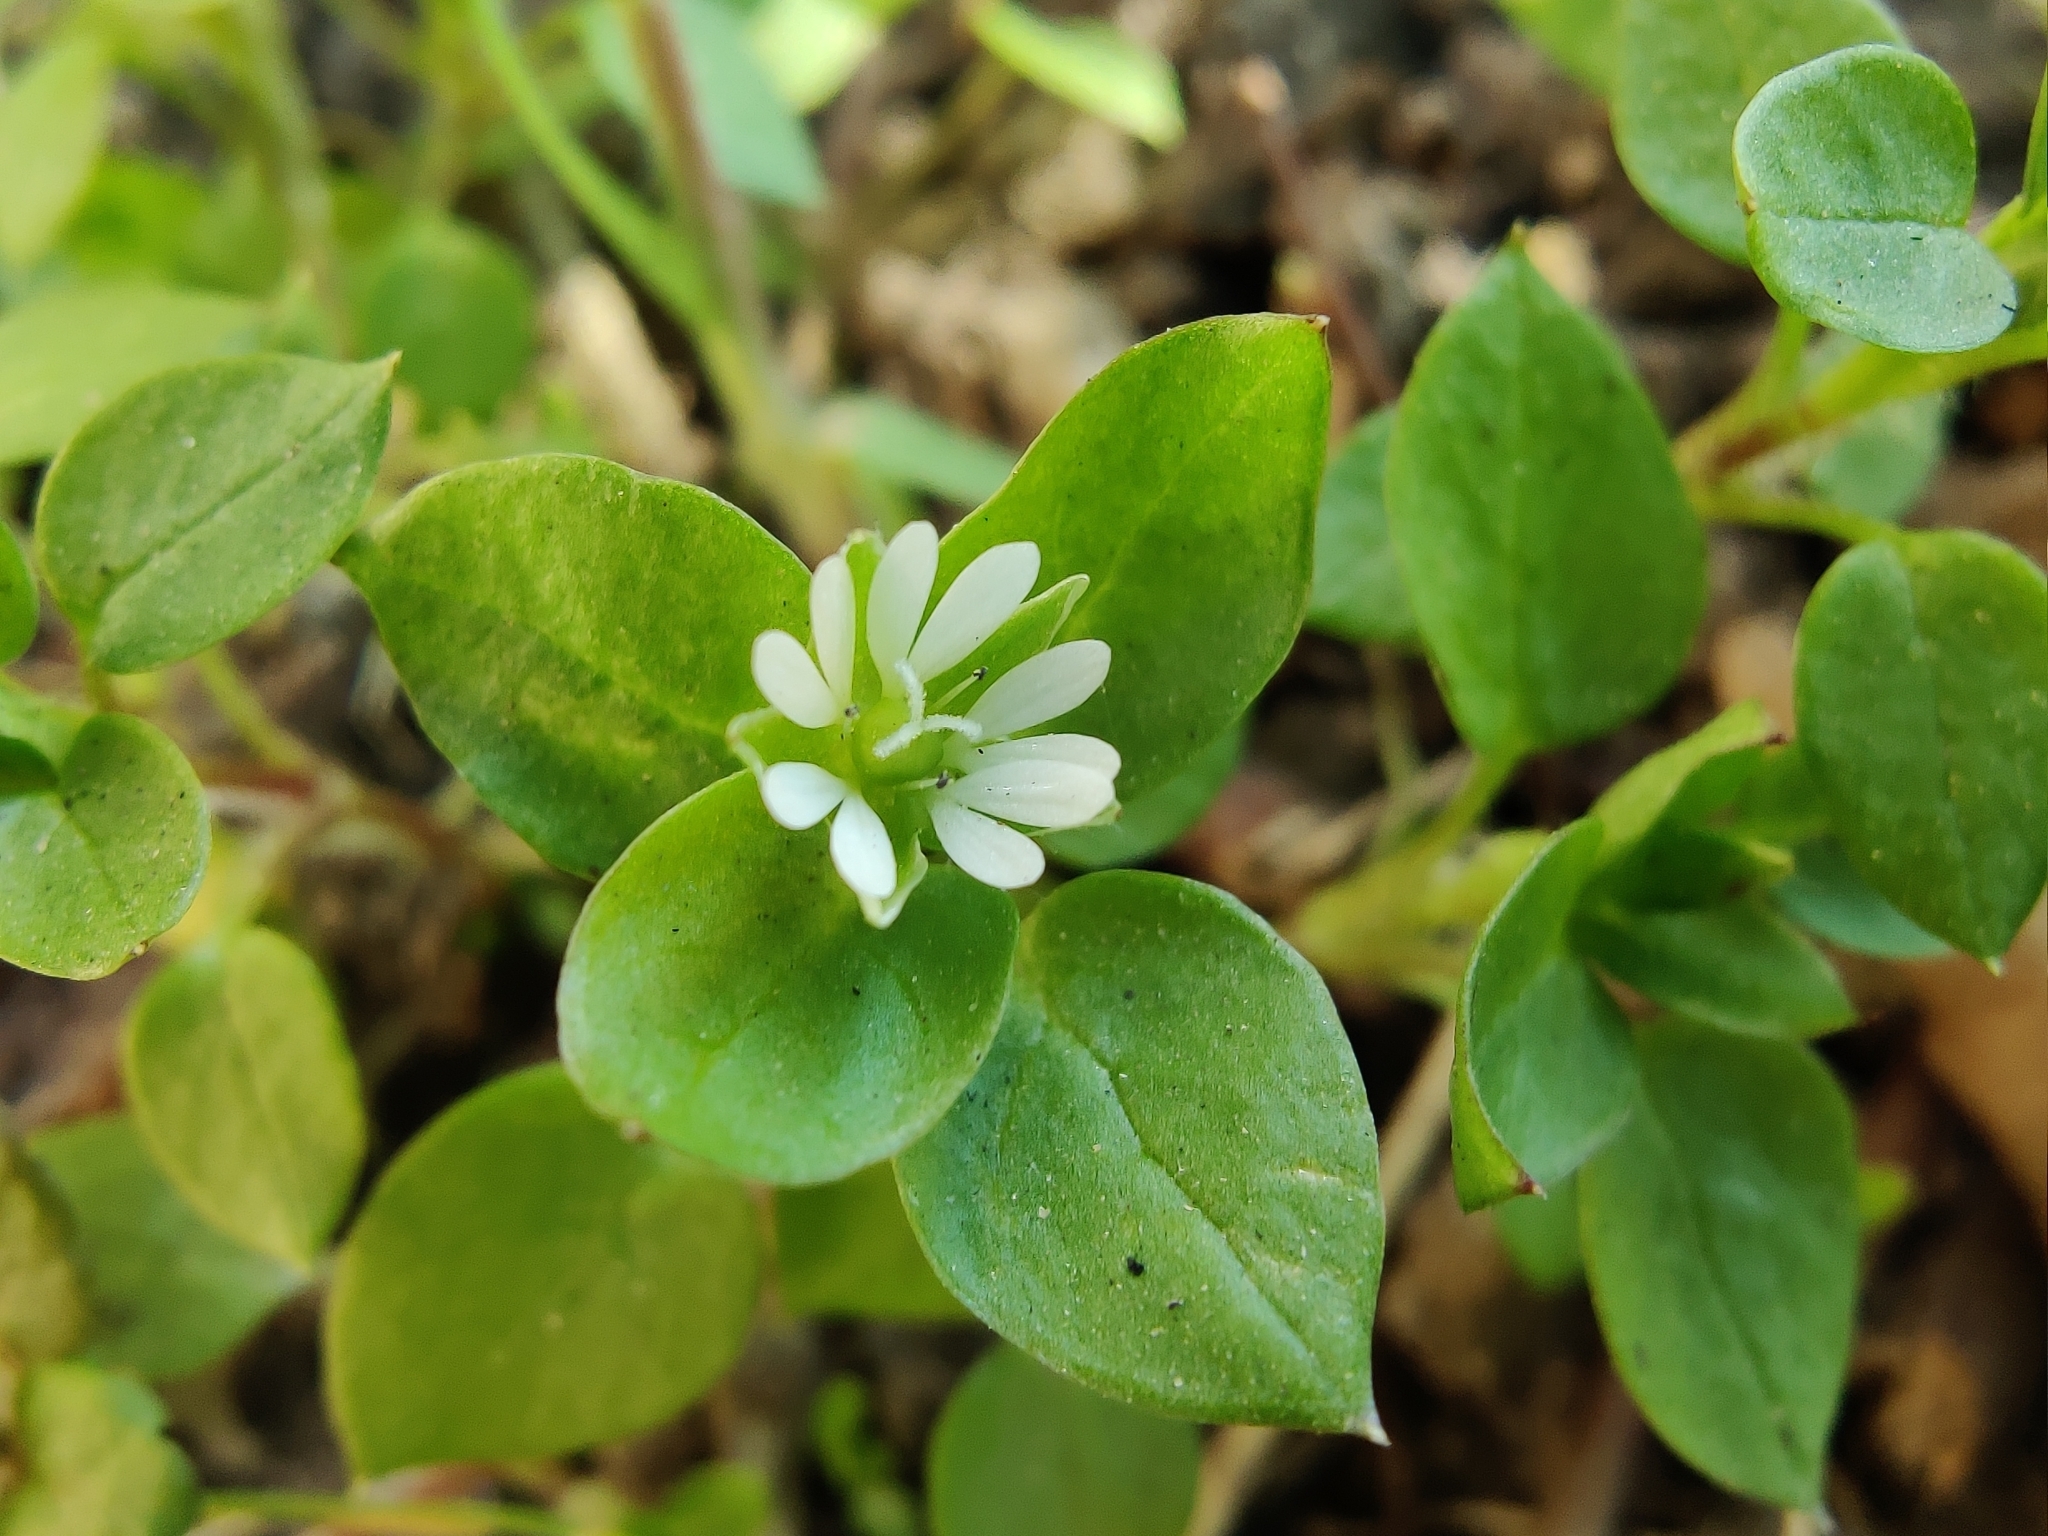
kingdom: Plantae
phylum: Tracheophyta
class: Magnoliopsida
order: Caryophyllales
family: Caryophyllaceae
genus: Stellaria
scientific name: Stellaria media
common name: Common chickweed
